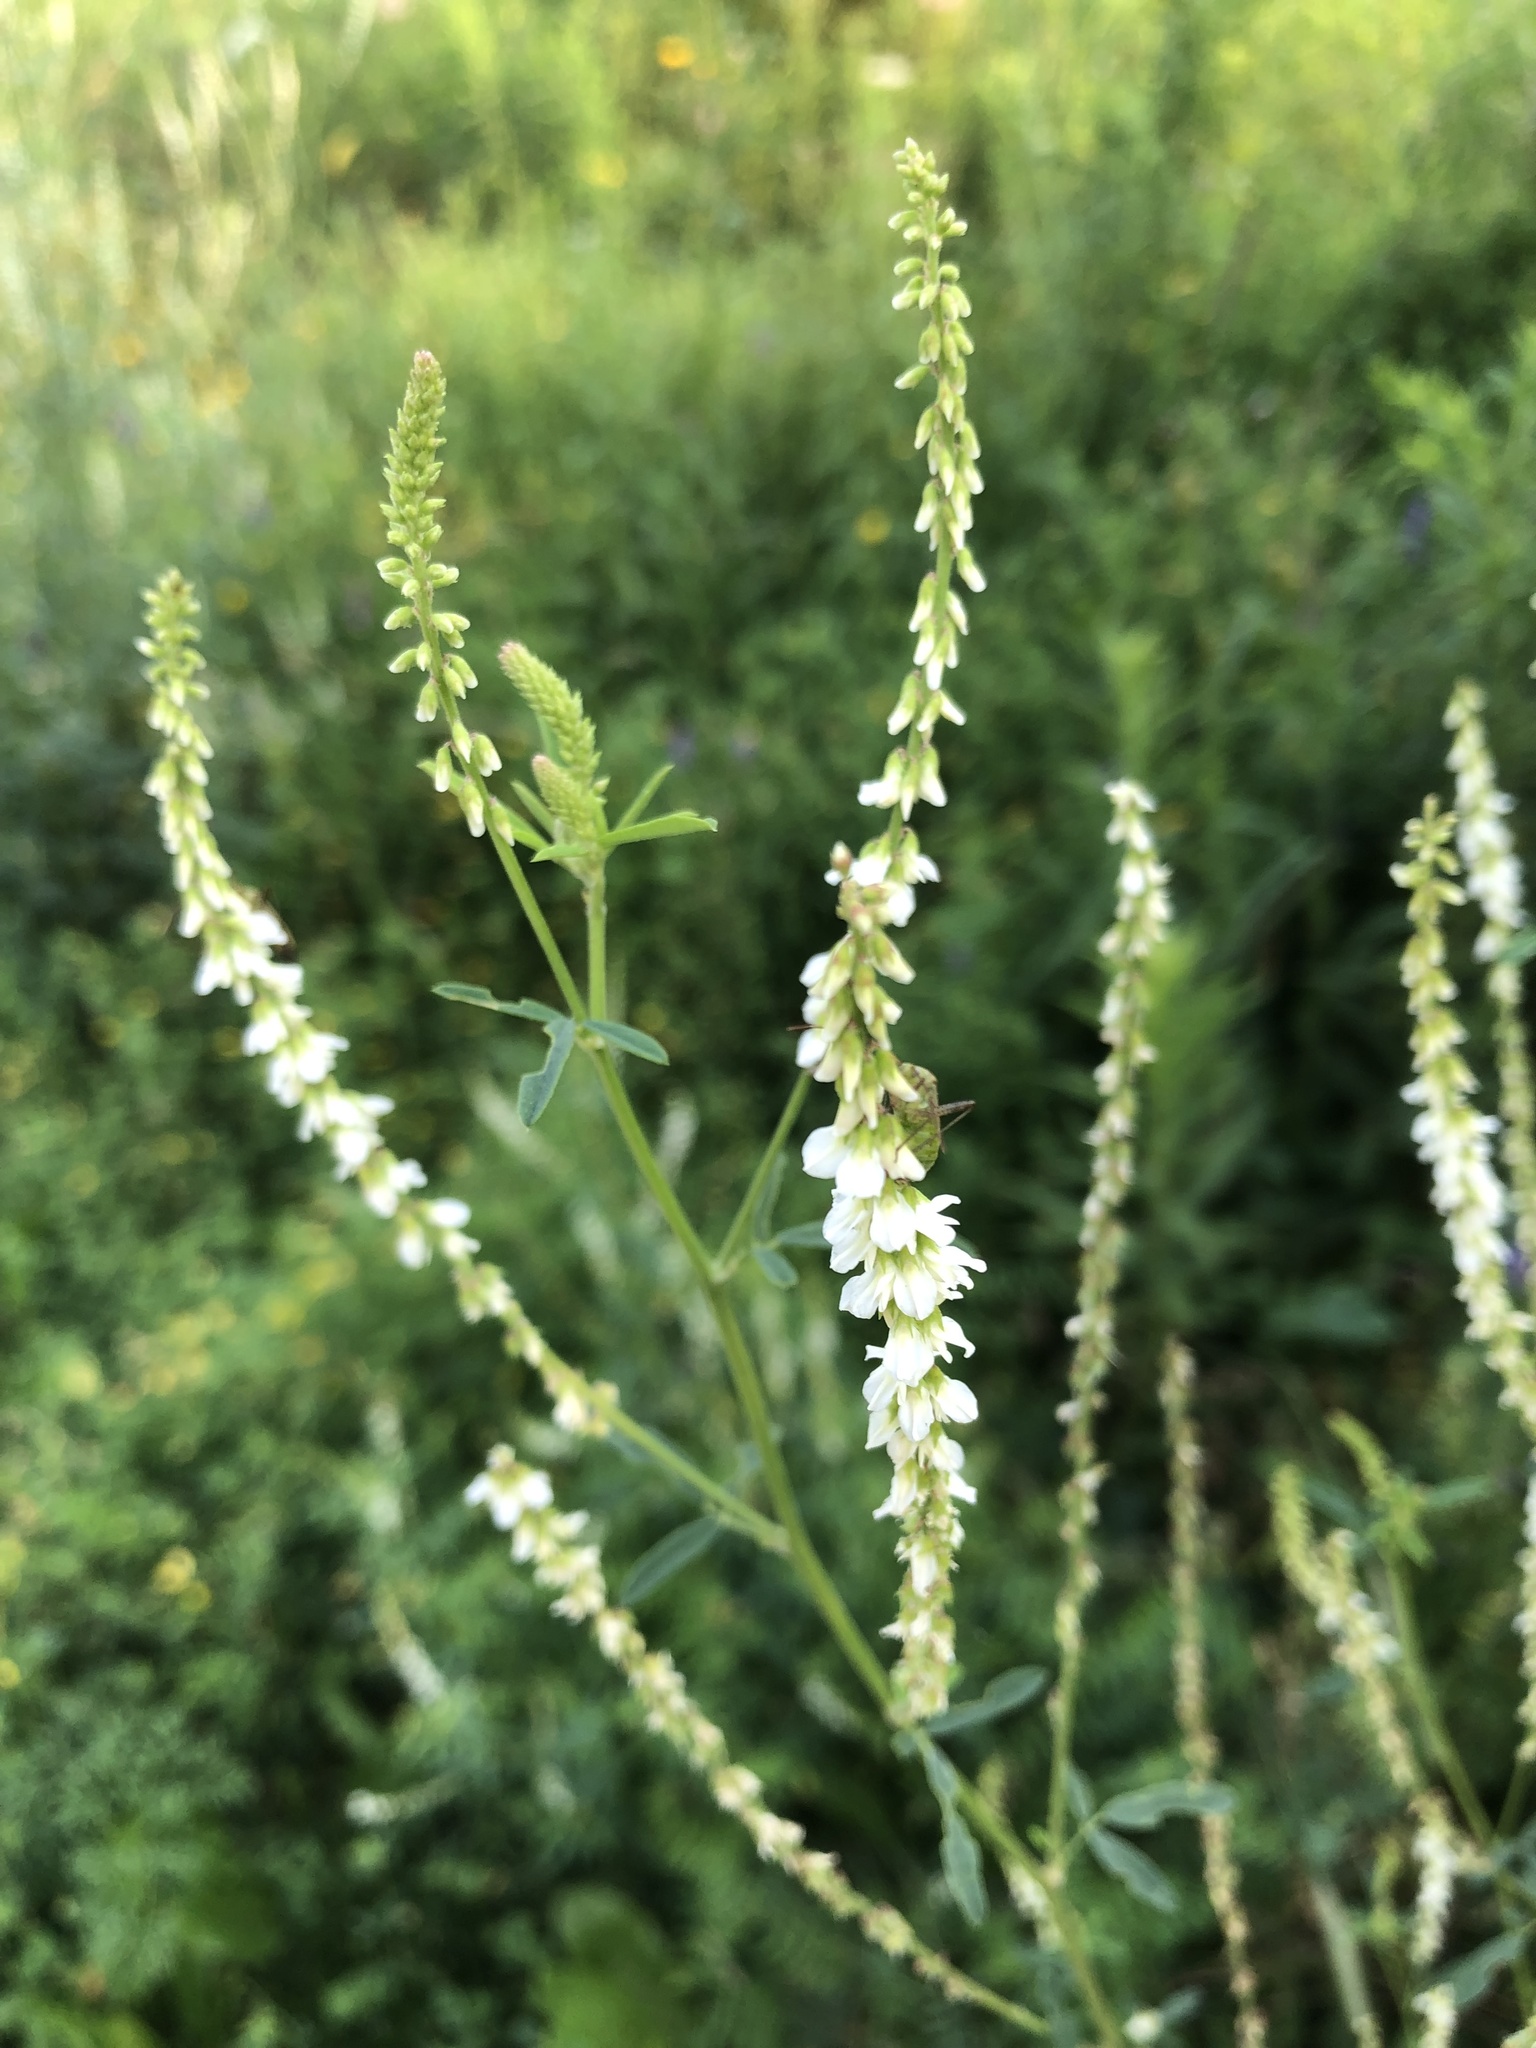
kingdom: Plantae
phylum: Tracheophyta
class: Magnoliopsida
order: Fabales
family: Fabaceae
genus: Melilotus
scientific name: Melilotus albus
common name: White melilot
